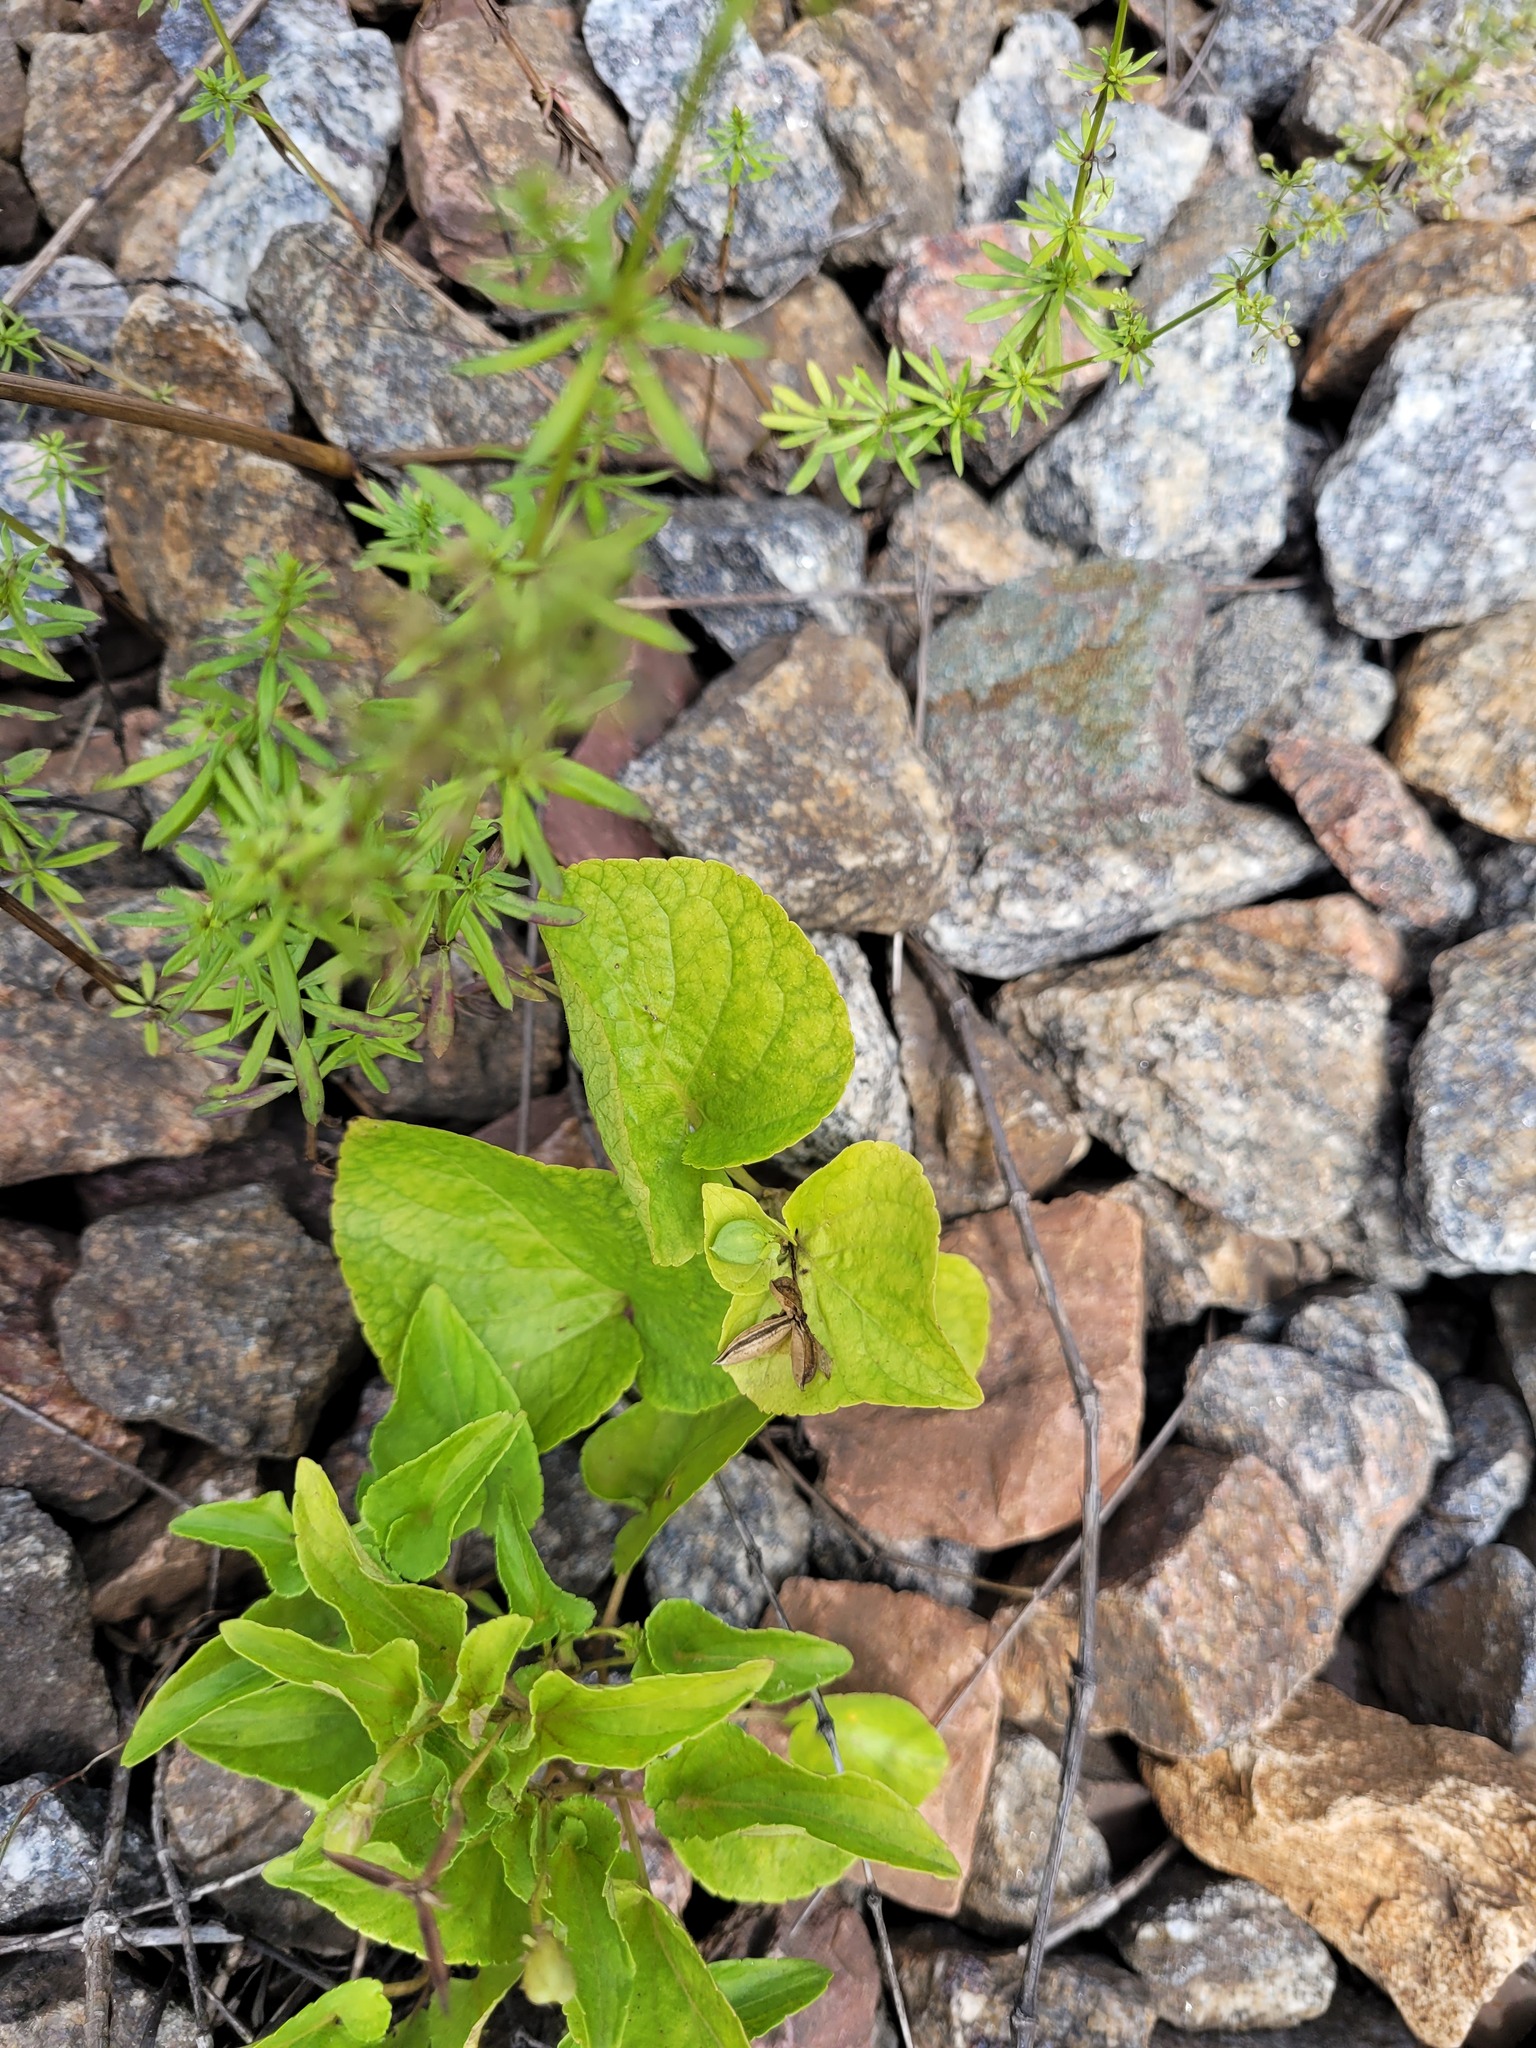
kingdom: Plantae
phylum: Tracheophyta
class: Magnoliopsida
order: Malpighiales
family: Violaceae
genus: Viola
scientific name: Viola mirabilis
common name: Wonder violet
